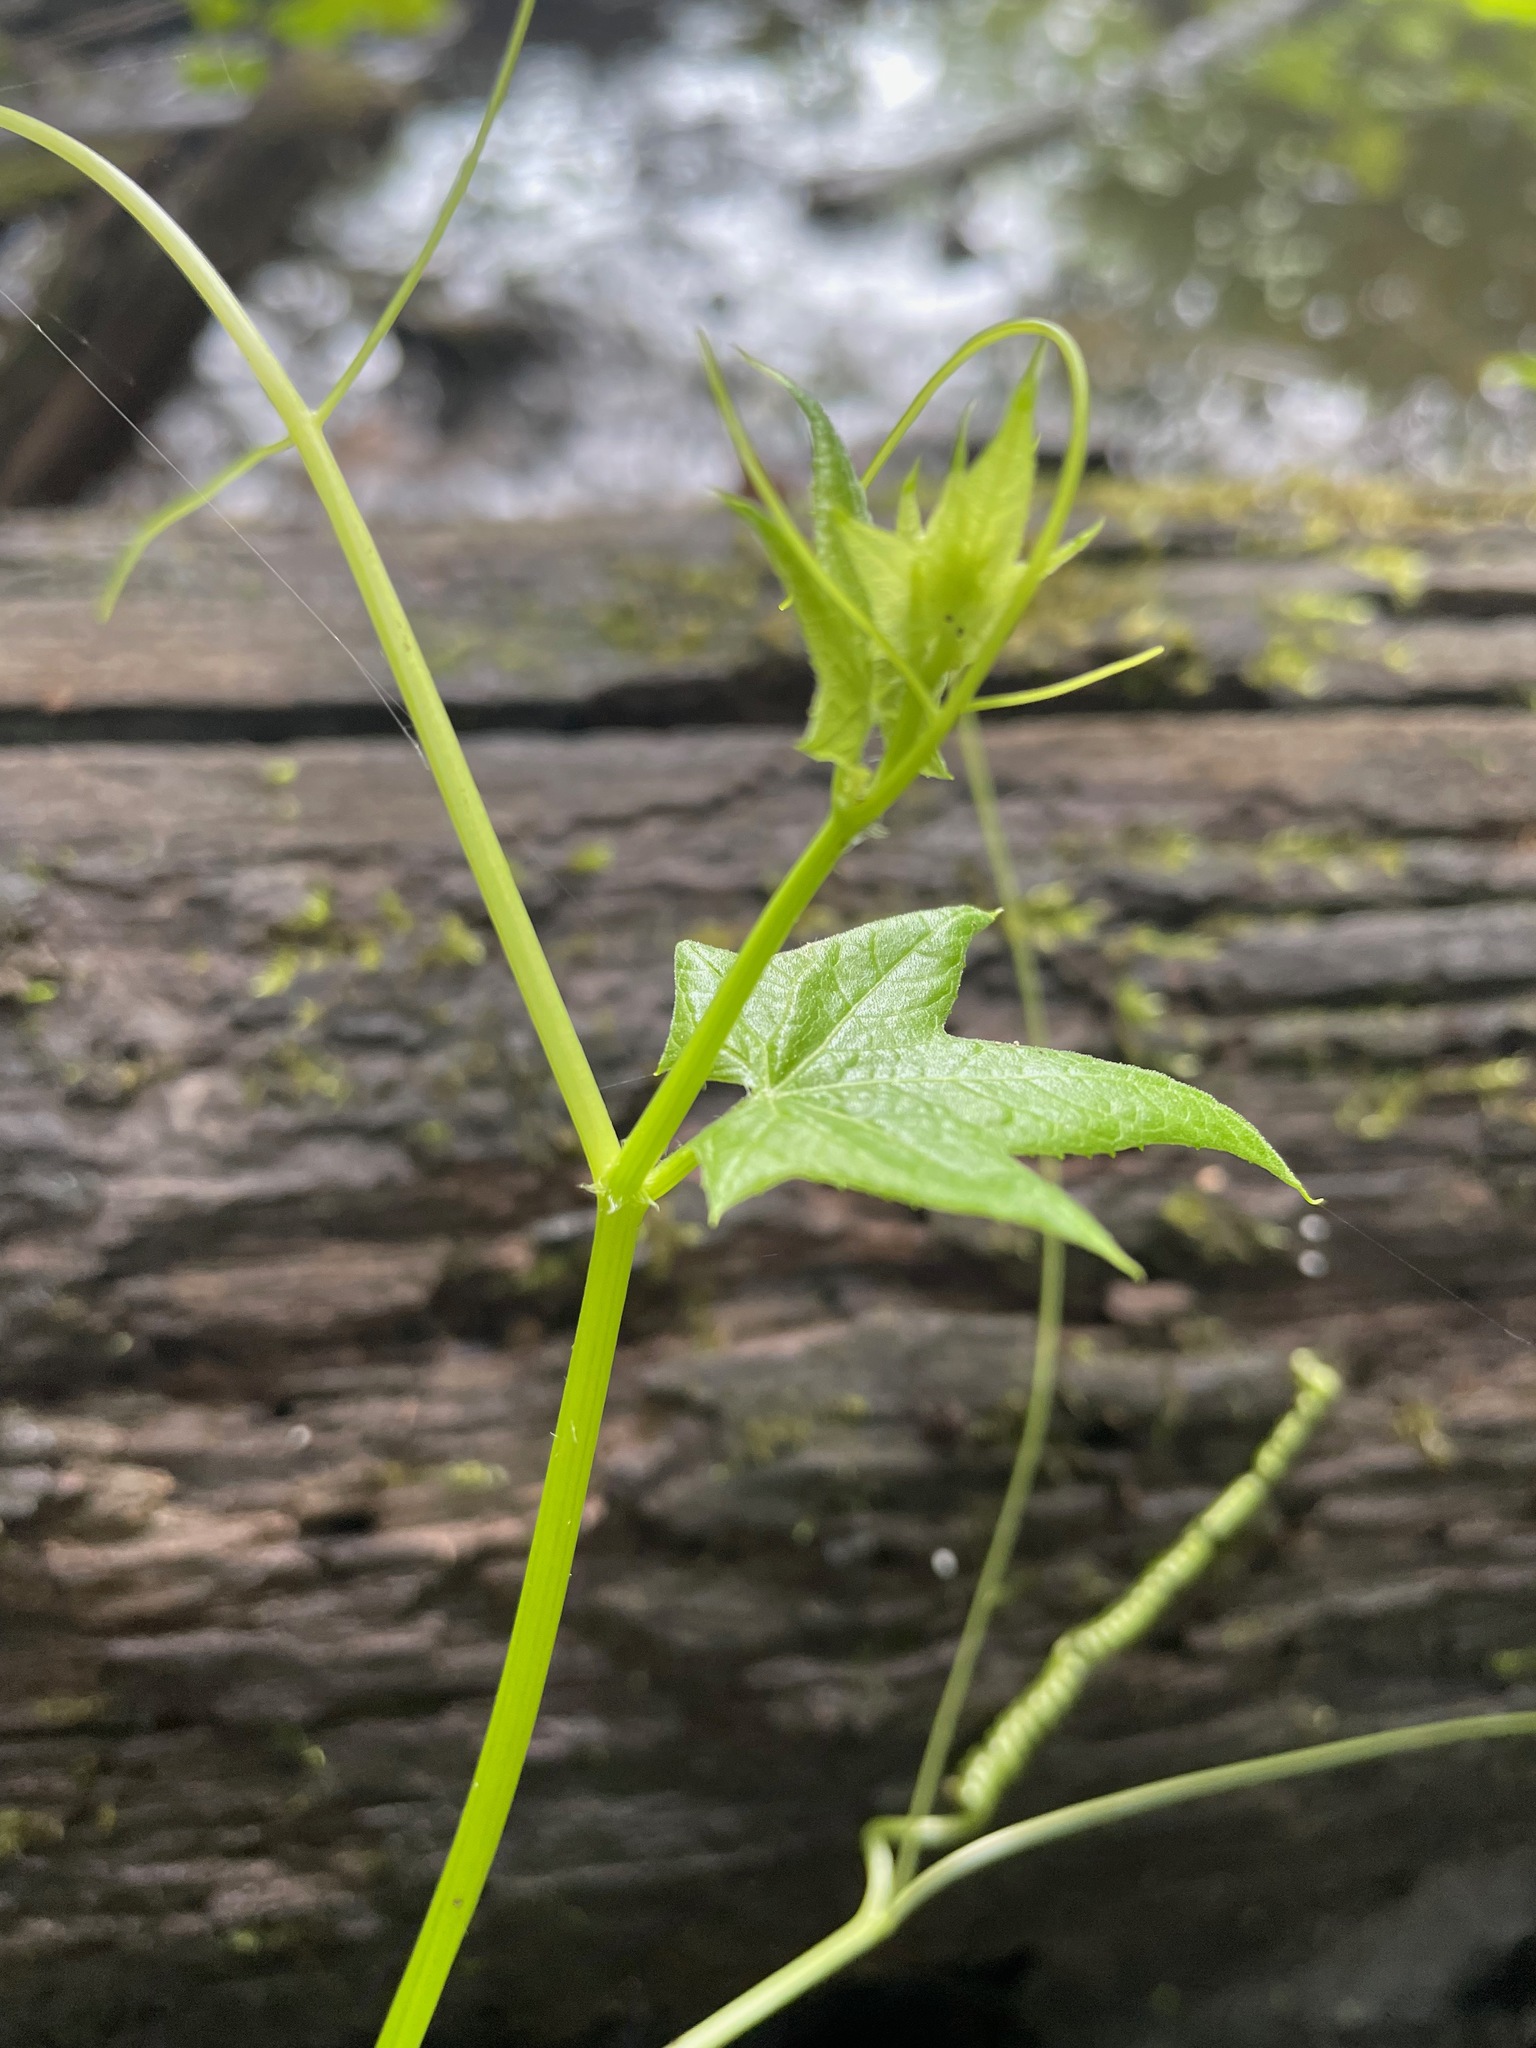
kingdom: Plantae
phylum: Tracheophyta
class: Magnoliopsida
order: Cucurbitales
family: Cucurbitaceae
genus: Echinocystis
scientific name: Echinocystis lobata
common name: Wild cucumber
